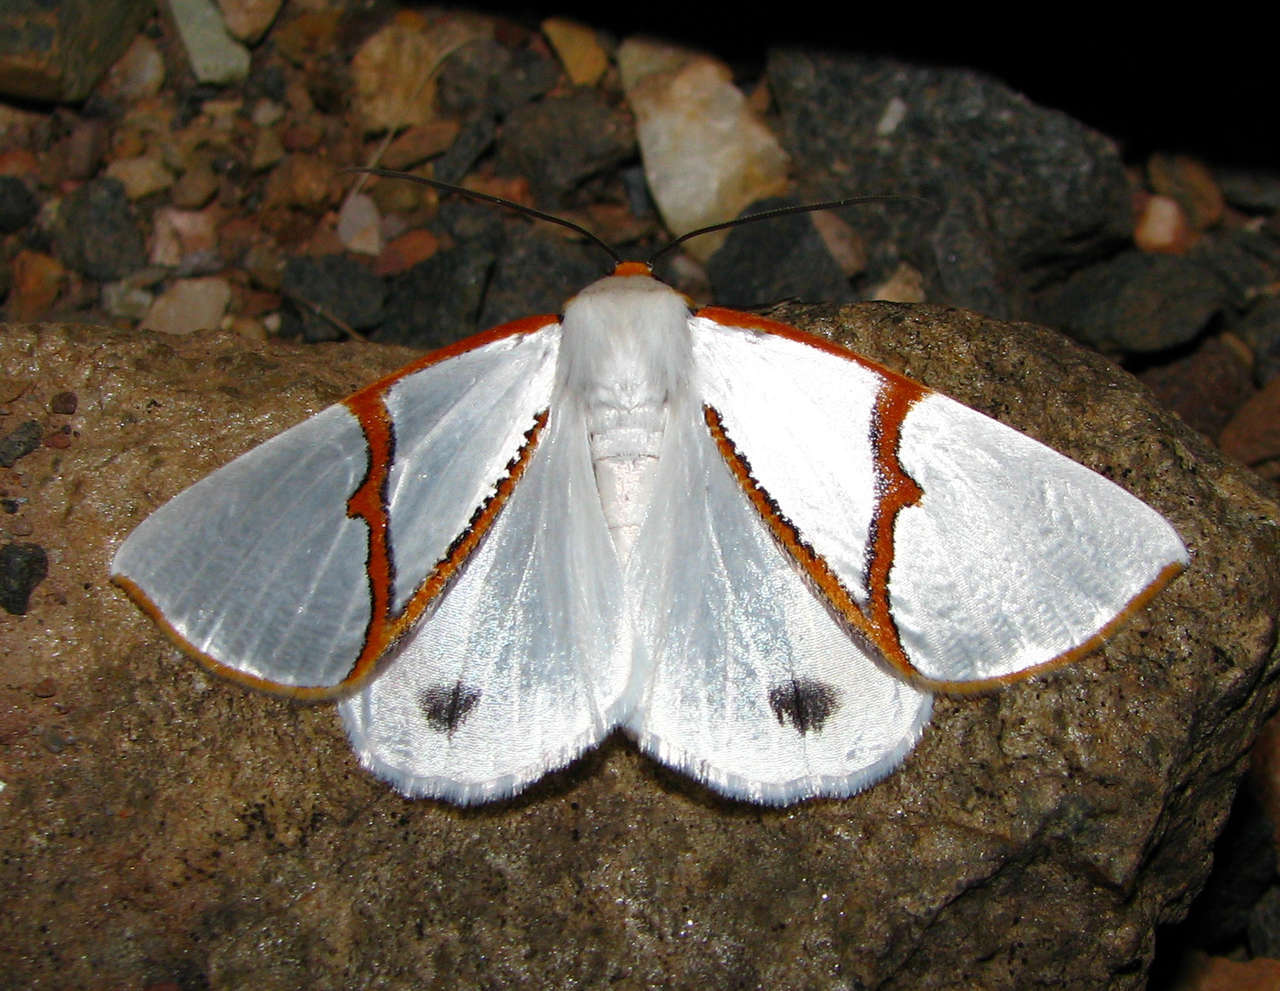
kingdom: Animalia
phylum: Arthropoda
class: Insecta
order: Lepidoptera
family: Geometridae
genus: Thalaina
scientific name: Thalaina selenaea
